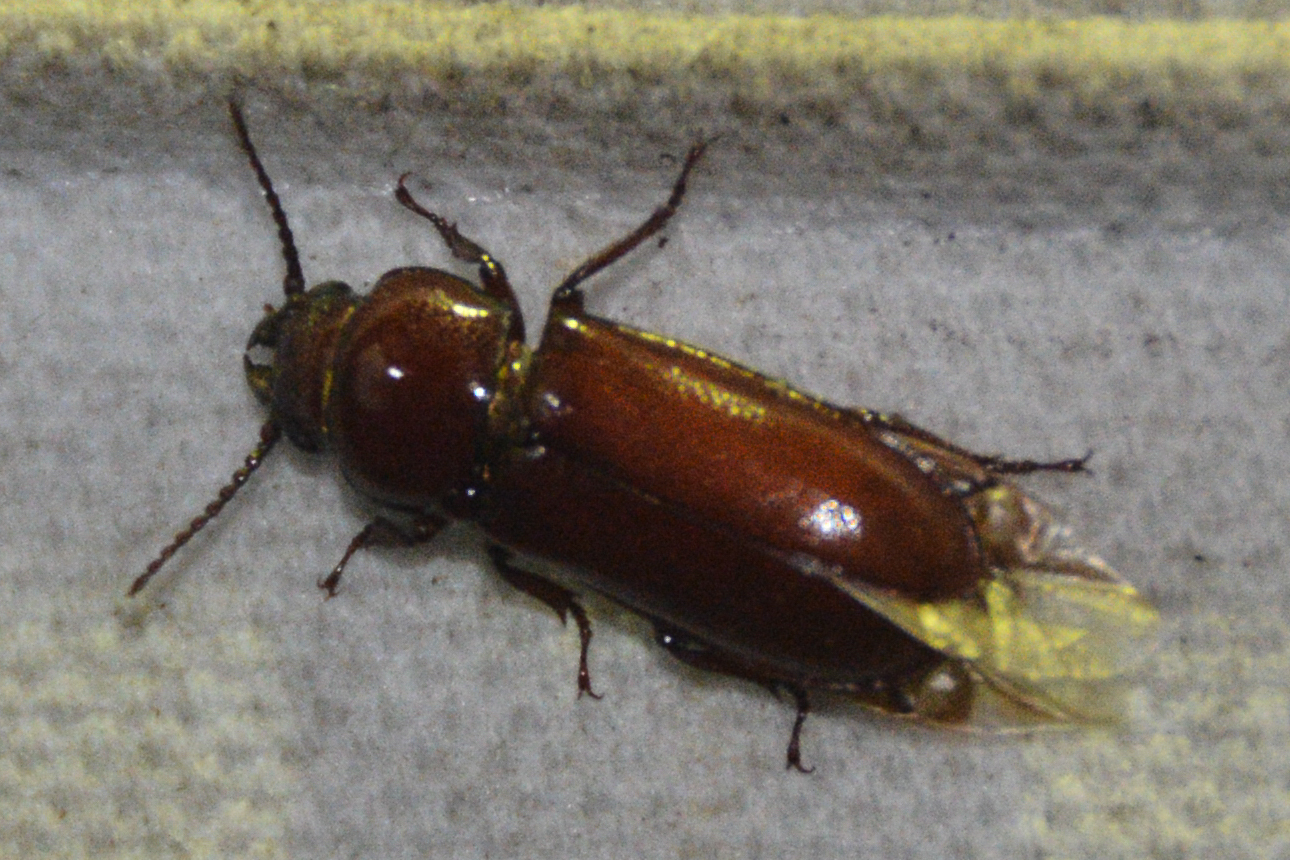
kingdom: Animalia
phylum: Arthropoda
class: Insecta
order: Coleoptera
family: Cerambycidae
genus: Neandra
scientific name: Neandra brunnea
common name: Pole borer
